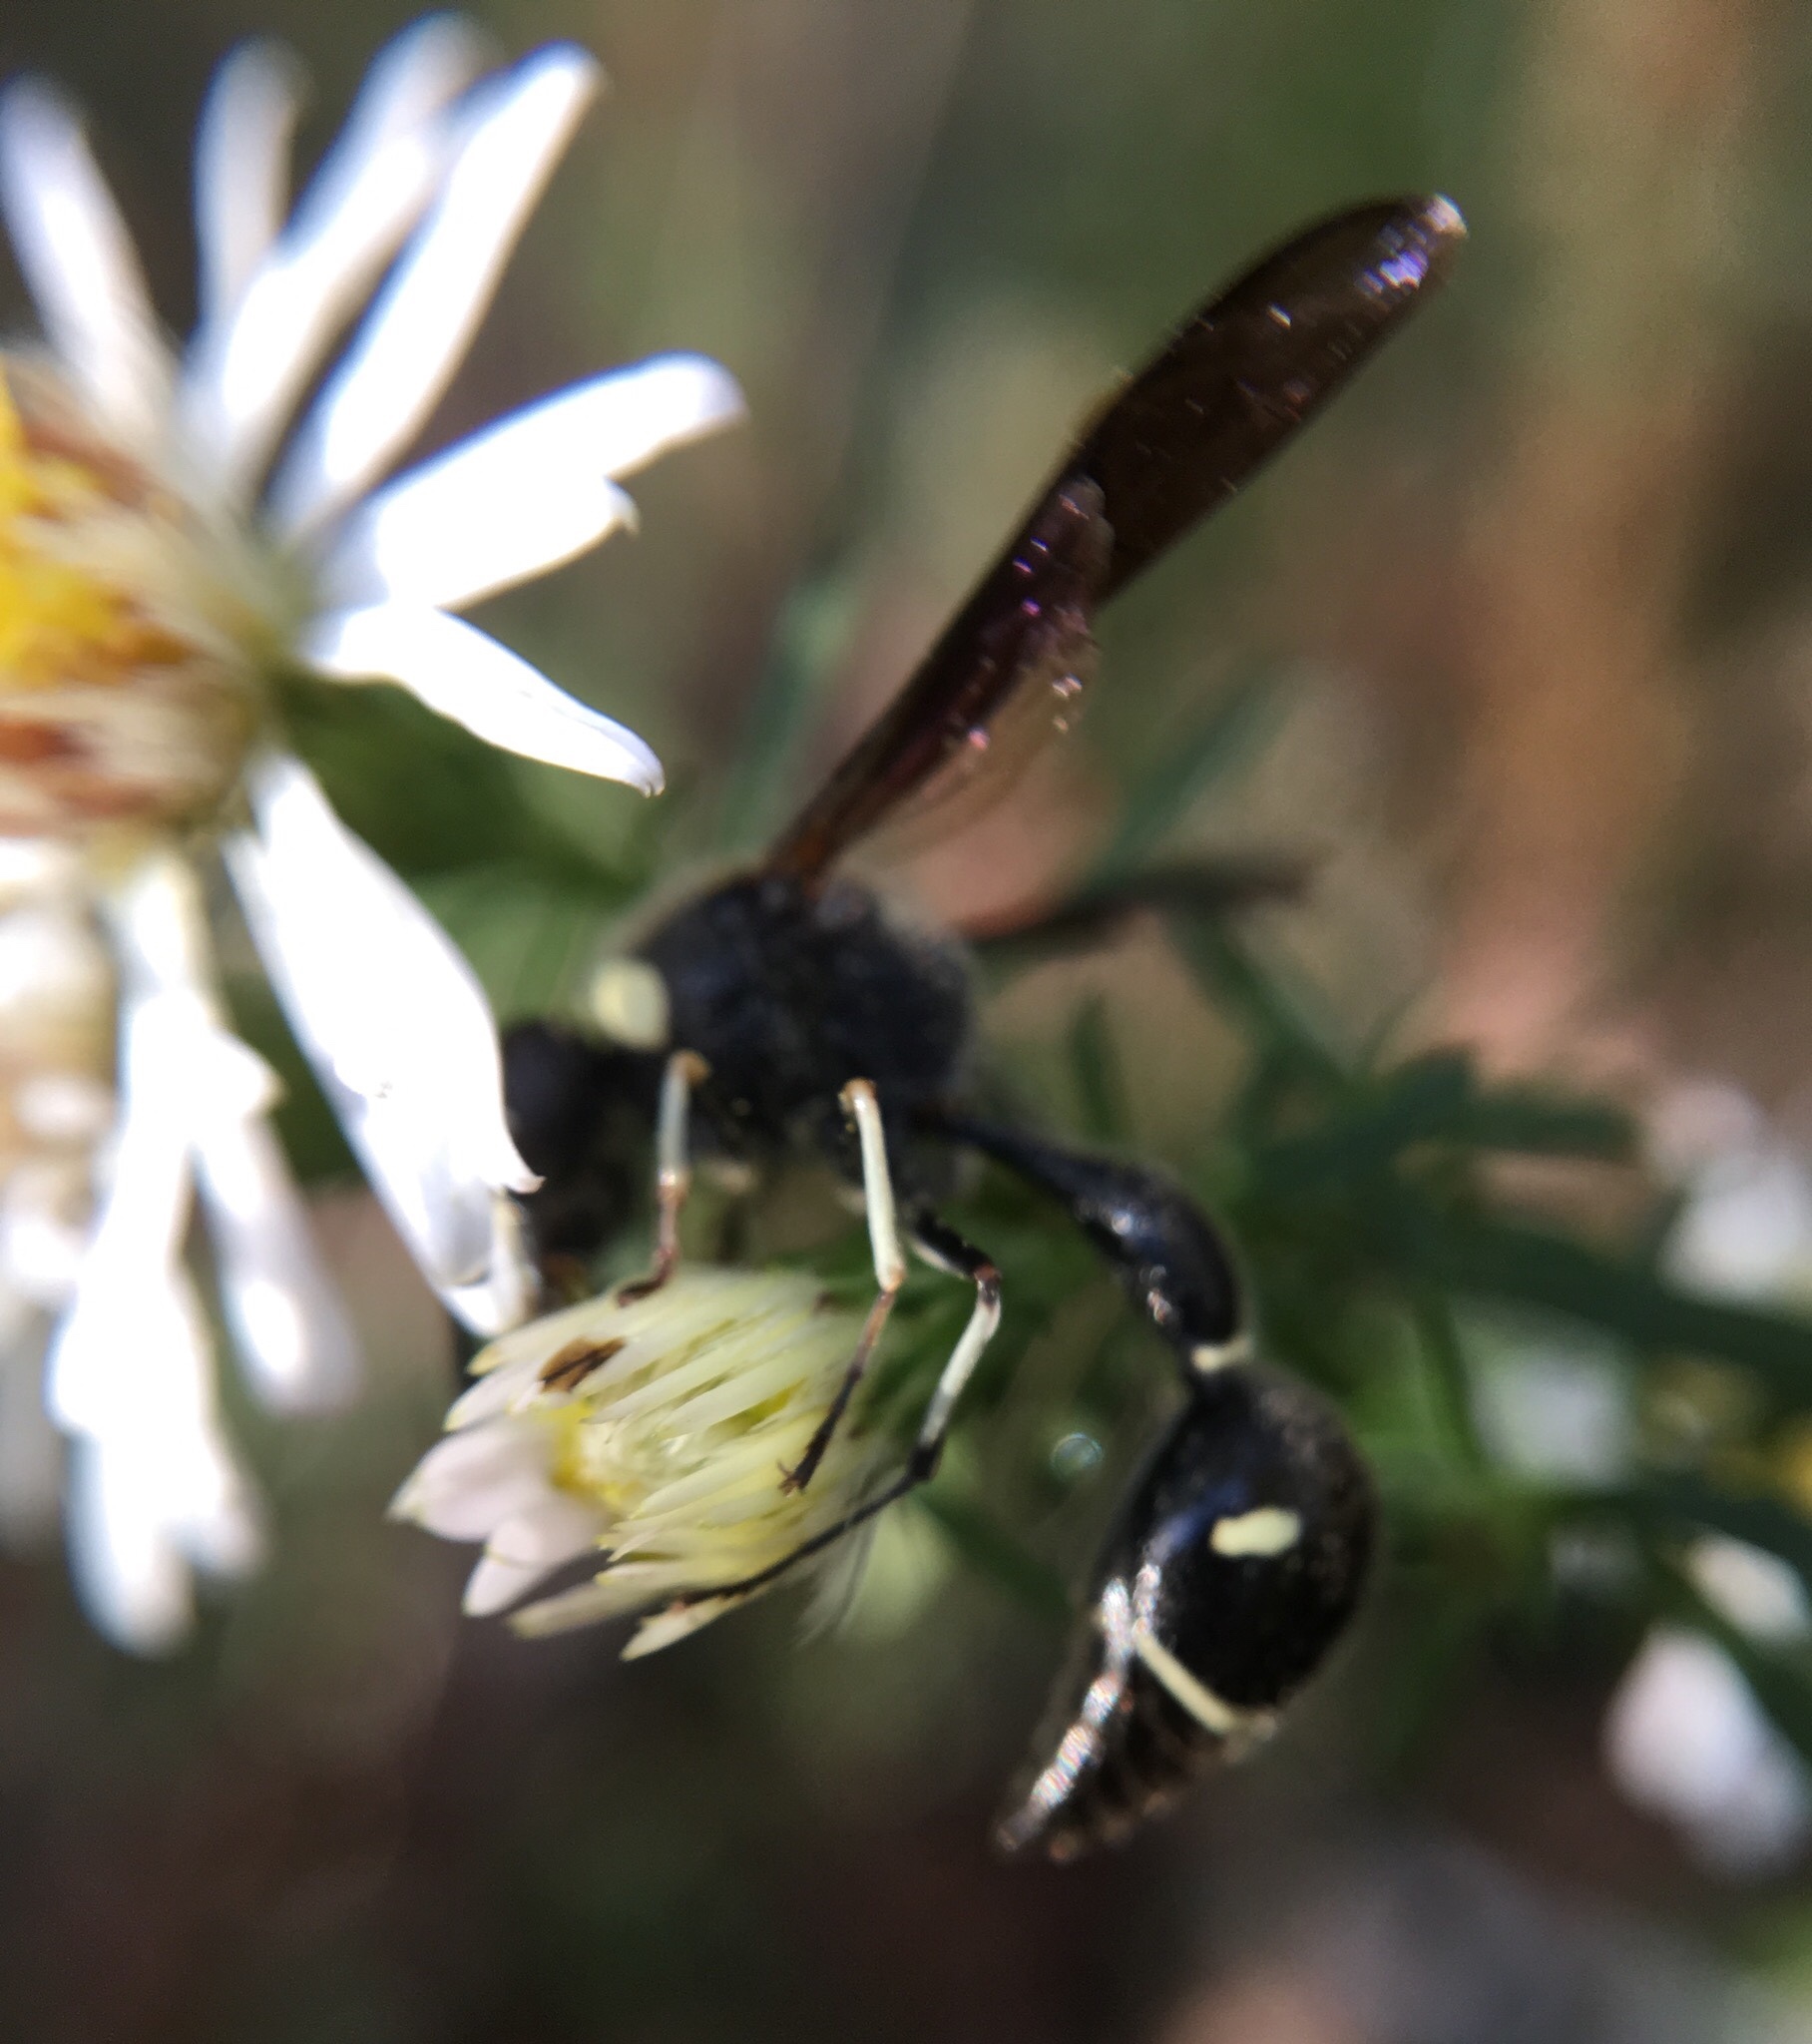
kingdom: Animalia
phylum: Arthropoda
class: Insecta
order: Hymenoptera
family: Vespidae
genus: Eumenes
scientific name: Eumenes fraternus
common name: Fraternal potter wasp
